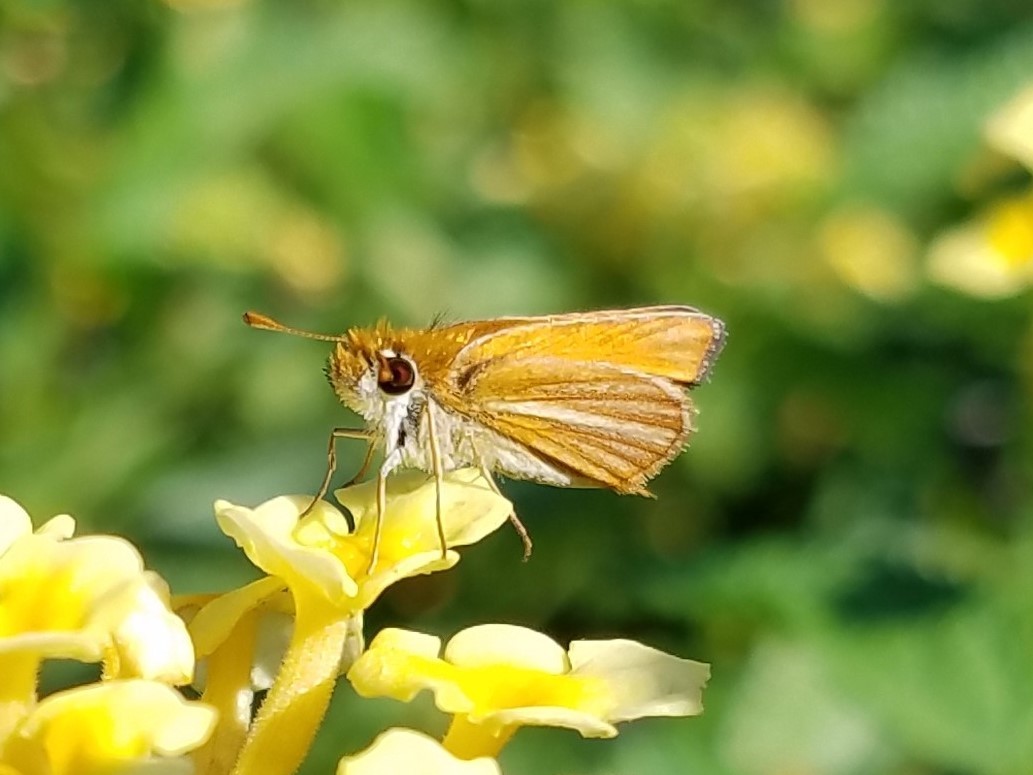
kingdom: Animalia
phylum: Arthropoda
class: Insecta
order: Lepidoptera
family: Hesperiidae
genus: Copaeodes
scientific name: Copaeodes minima
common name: Southern skipperling
